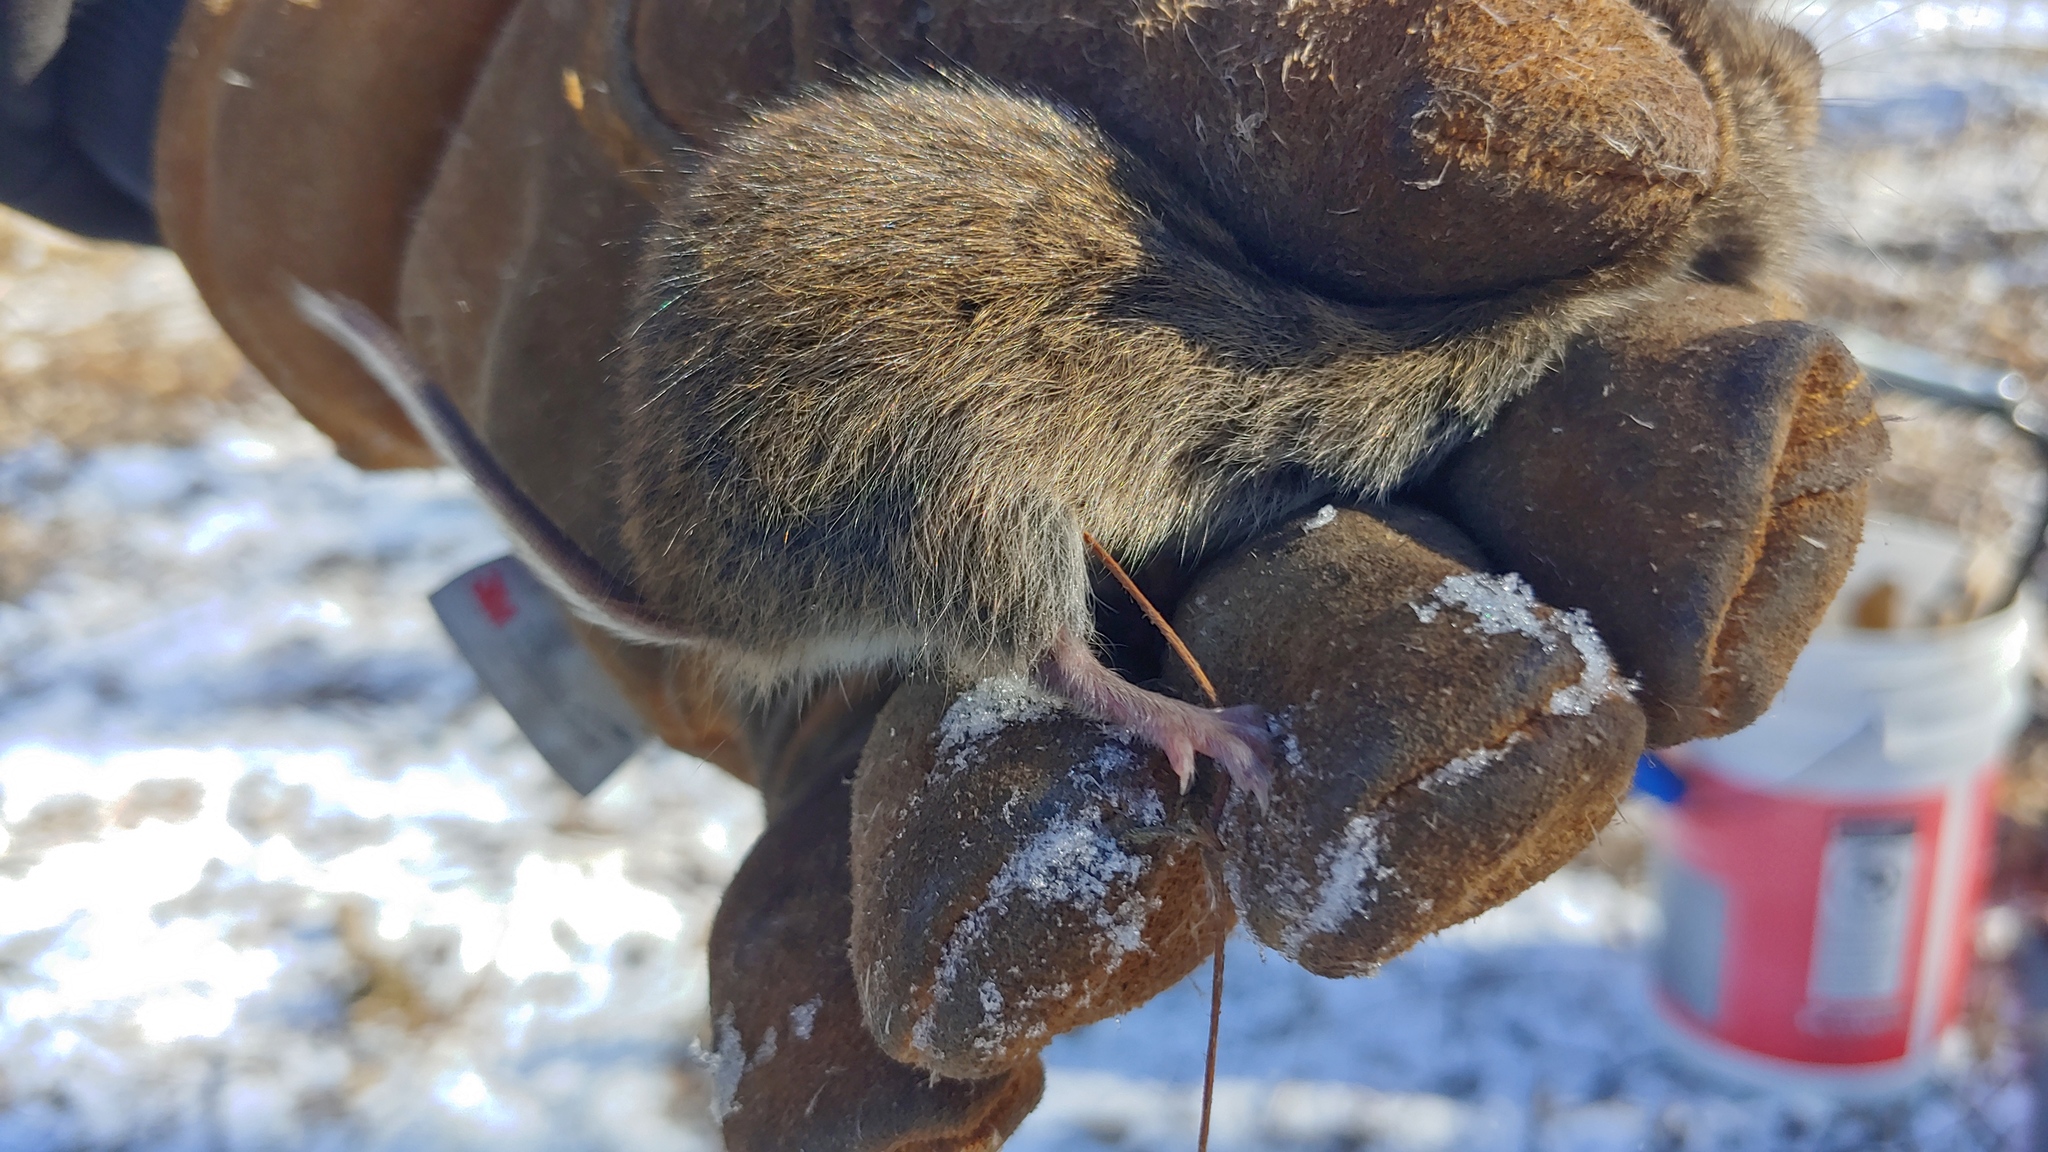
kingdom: Animalia
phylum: Chordata
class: Mammalia
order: Rodentia
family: Cricetidae
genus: Microtus
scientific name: Microtus pennsylvanicus
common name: Meadow vole
